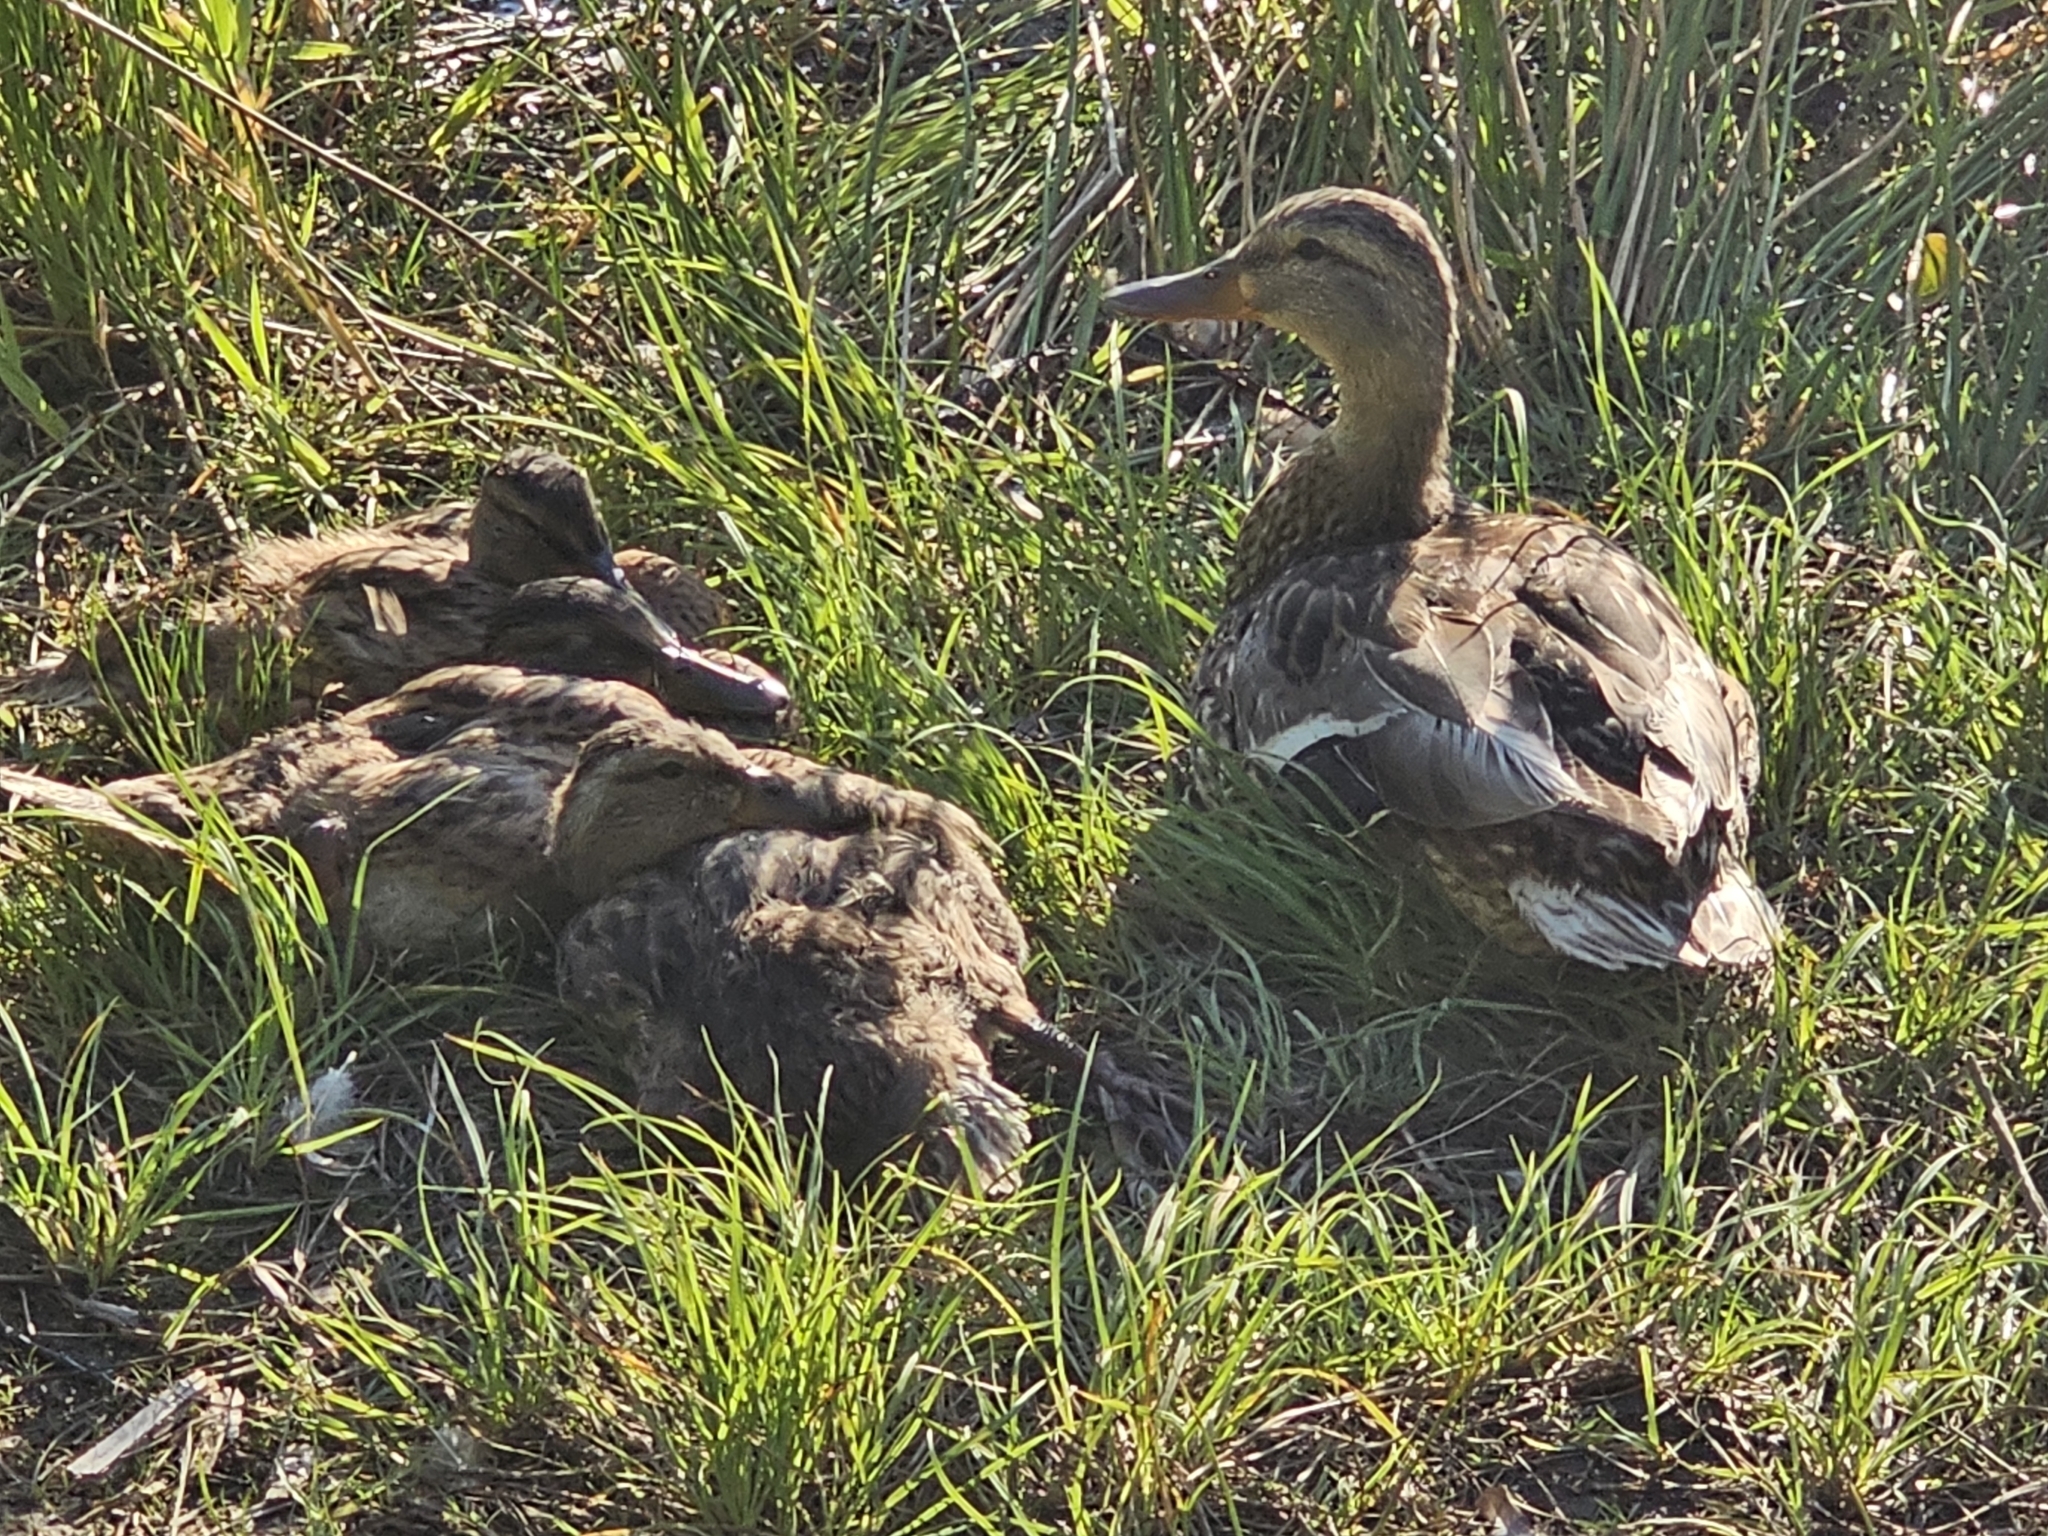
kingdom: Animalia
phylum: Chordata
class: Aves
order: Anseriformes
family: Anatidae
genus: Anas
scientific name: Anas platyrhynchos
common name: Mallard
